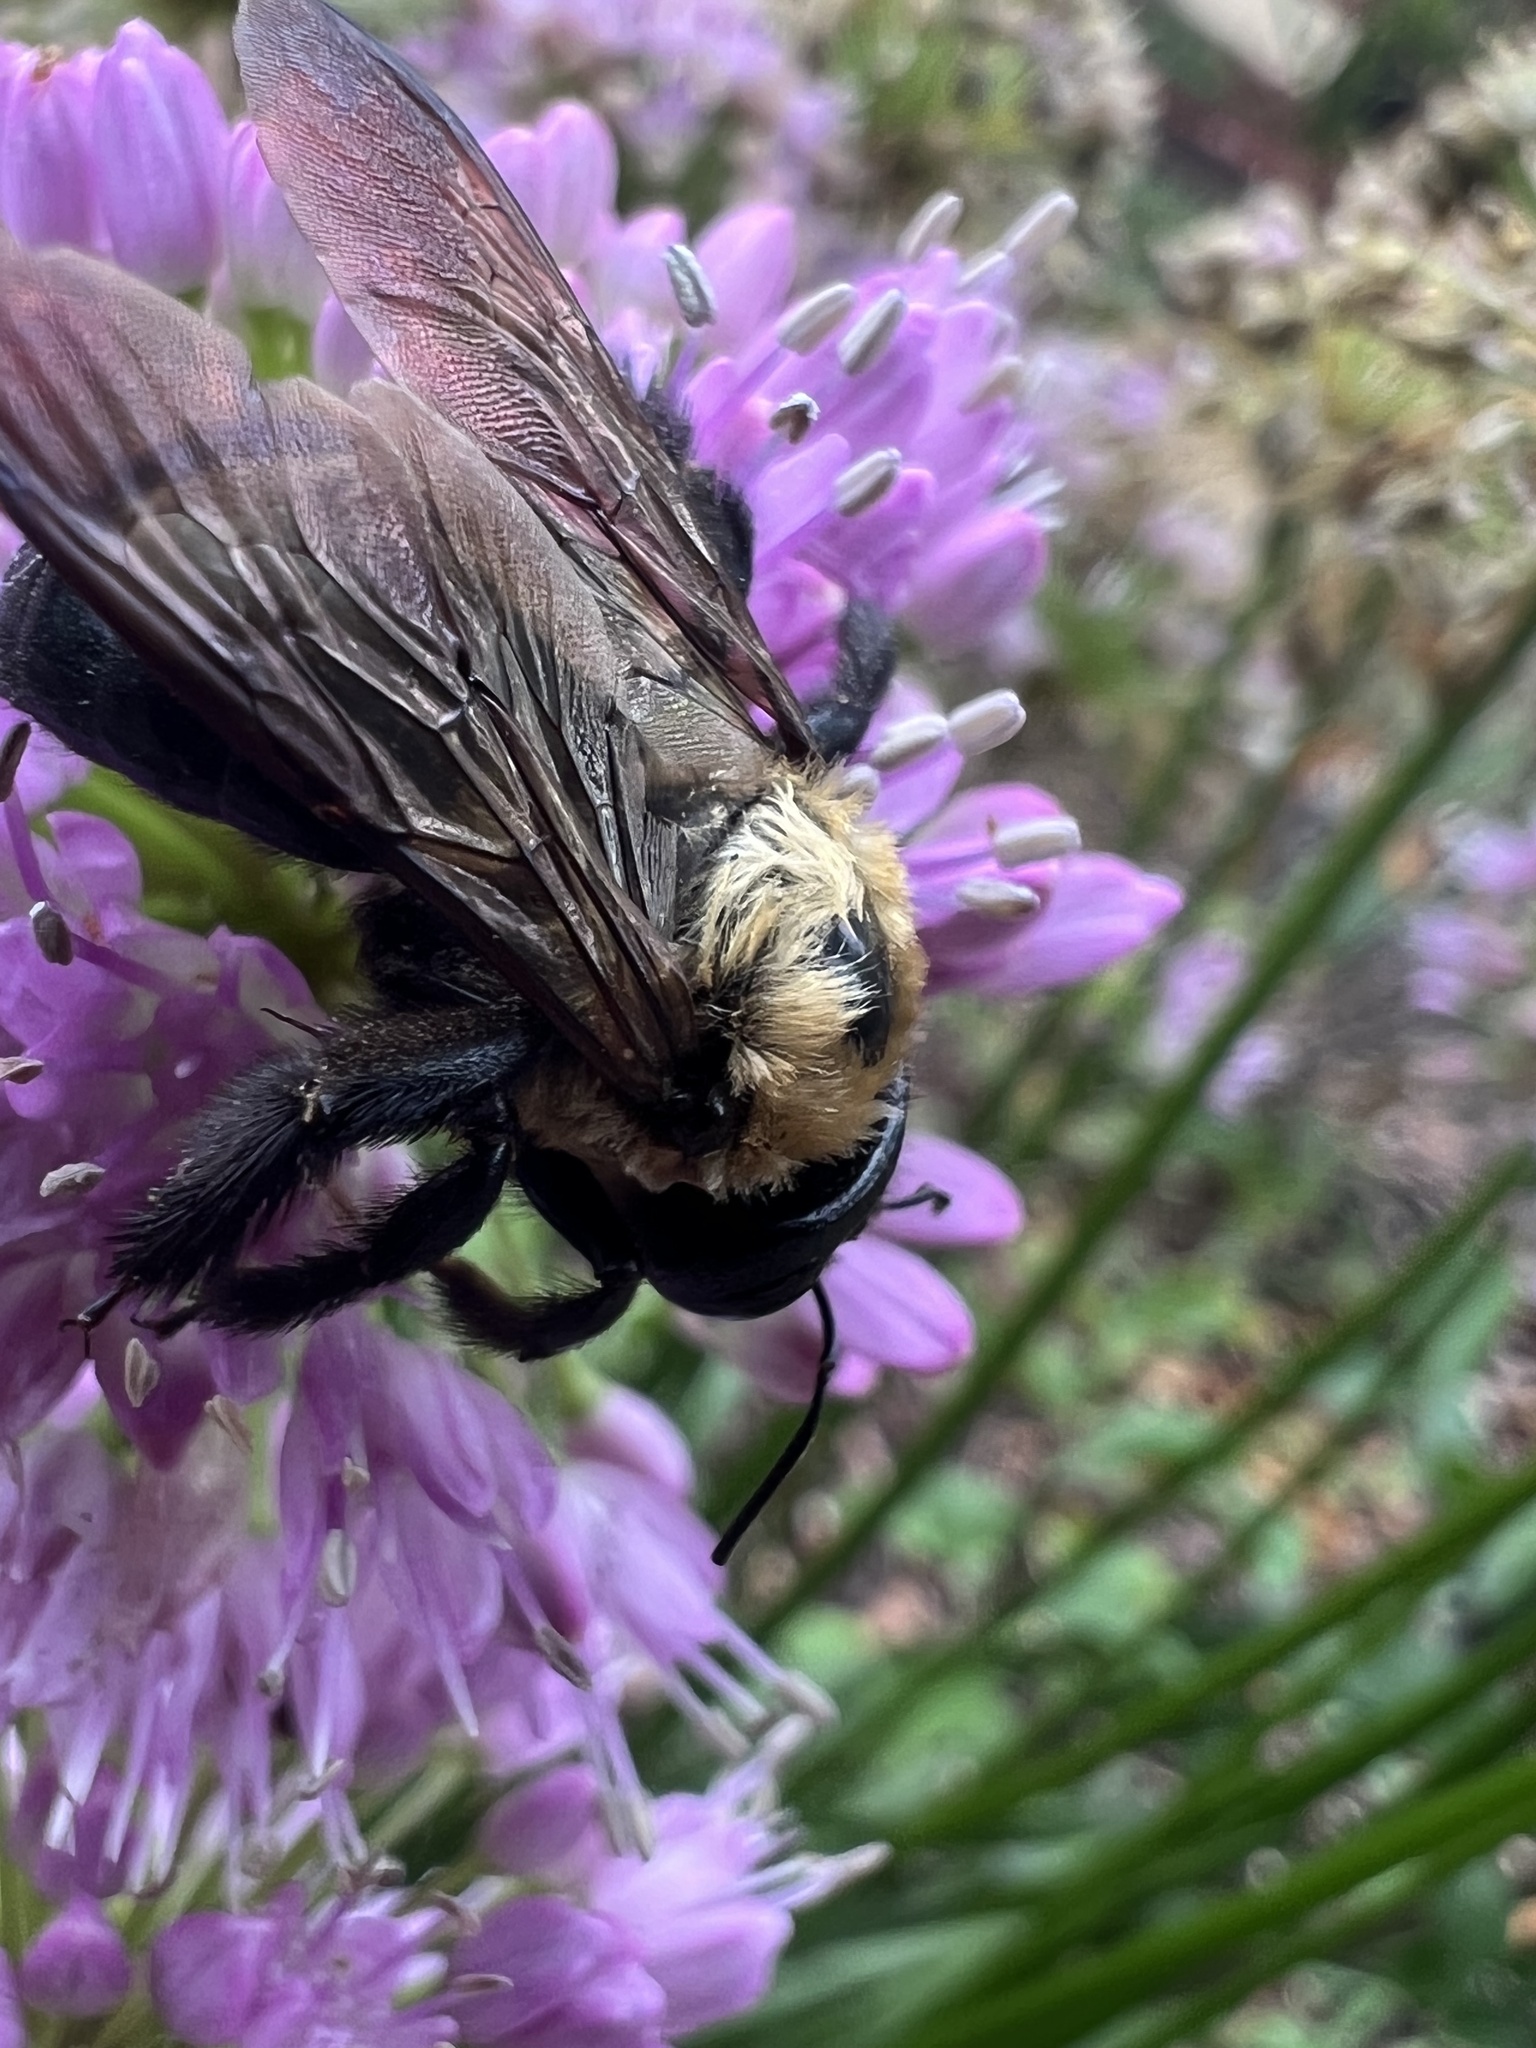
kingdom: Animalia
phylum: Arthropoda
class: Insecta
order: Hymenoptera
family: Apidae
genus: Xylocopa
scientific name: Xylocopa virginica
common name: Carpenter bee
